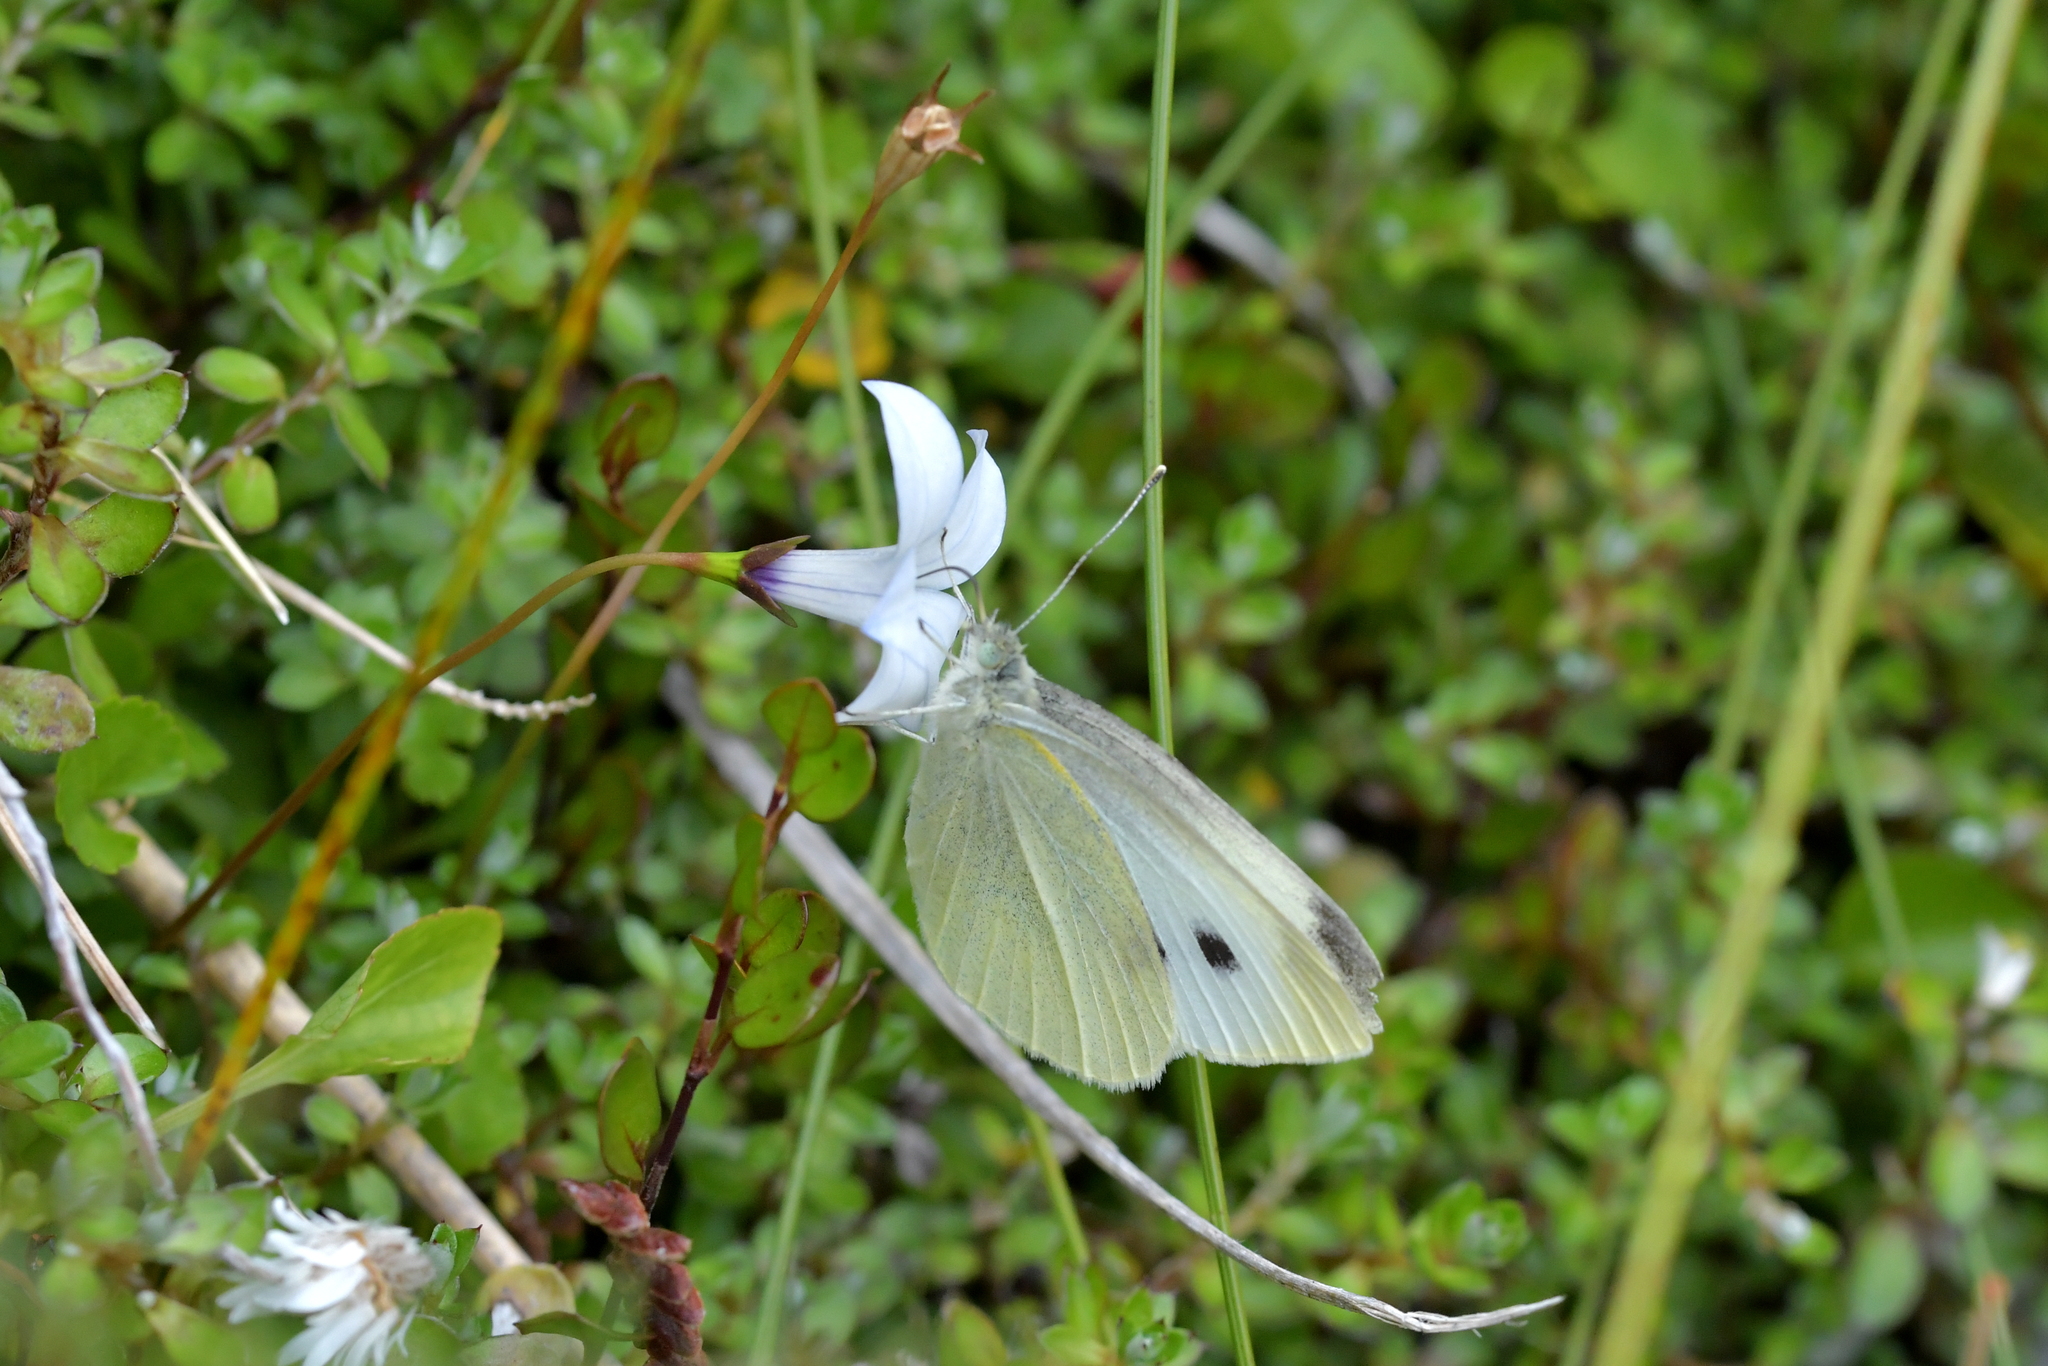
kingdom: Animalia
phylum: Arthropoda
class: Insecta
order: Lepidoptera
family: Pieridae
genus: Pieris
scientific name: Pieris rapae
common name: Small white
